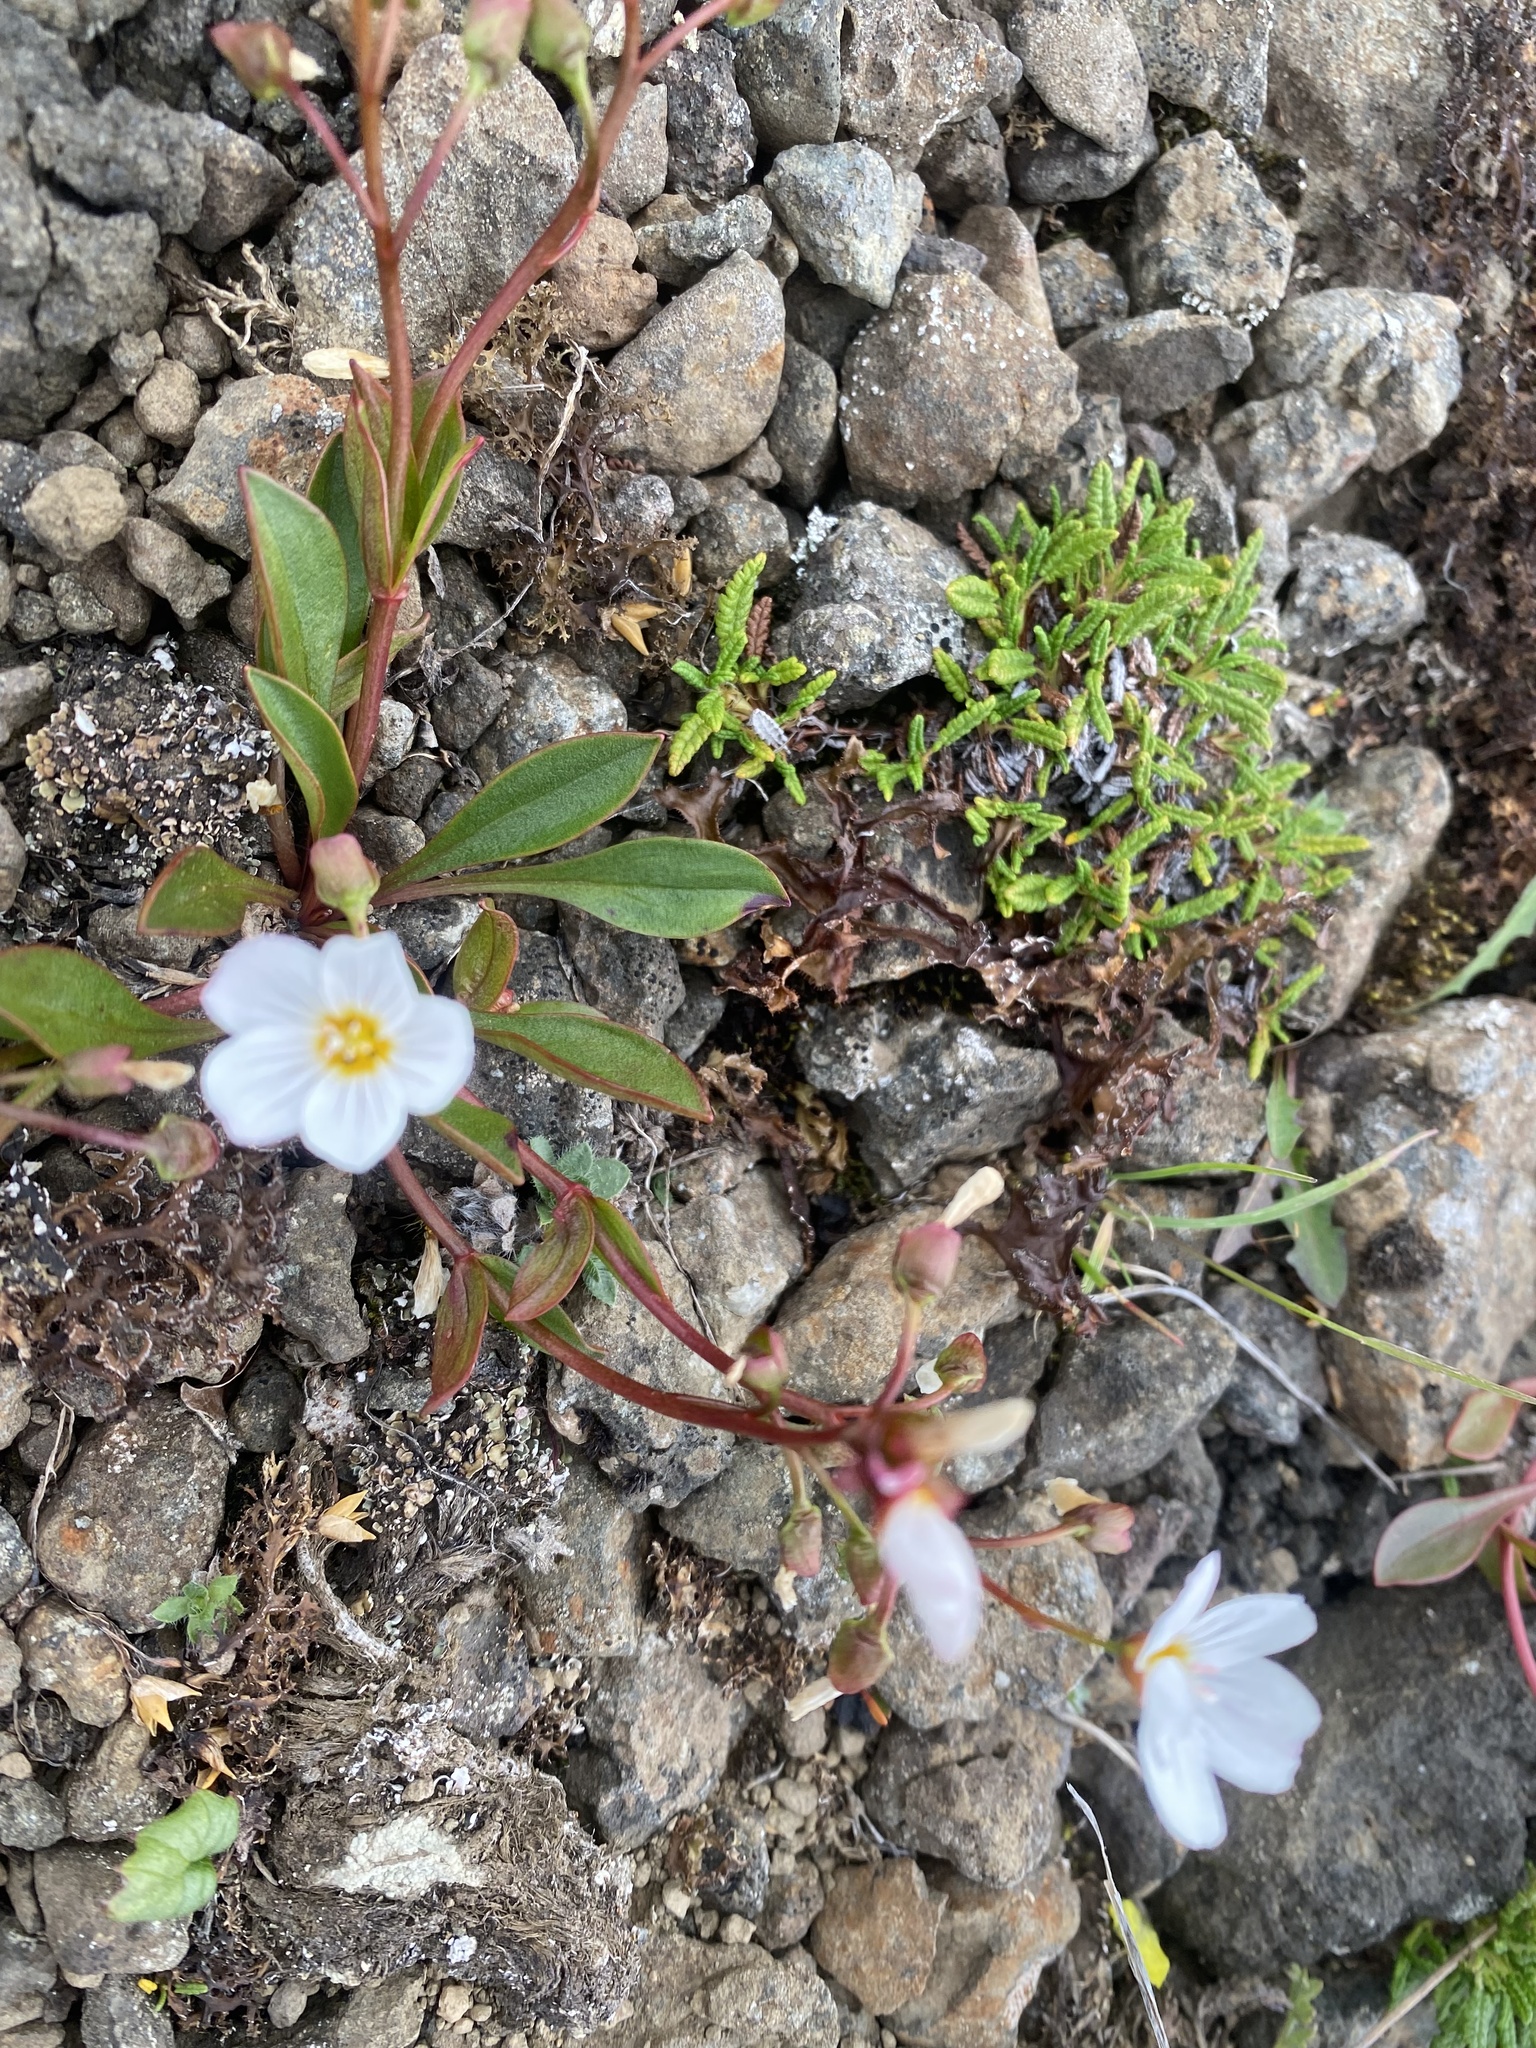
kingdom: Plantae
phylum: Tracheophyta
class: Magnoliopsida
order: Caryophyllales
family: Montiaceae
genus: Claytonia
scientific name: Claytonia joanneana
